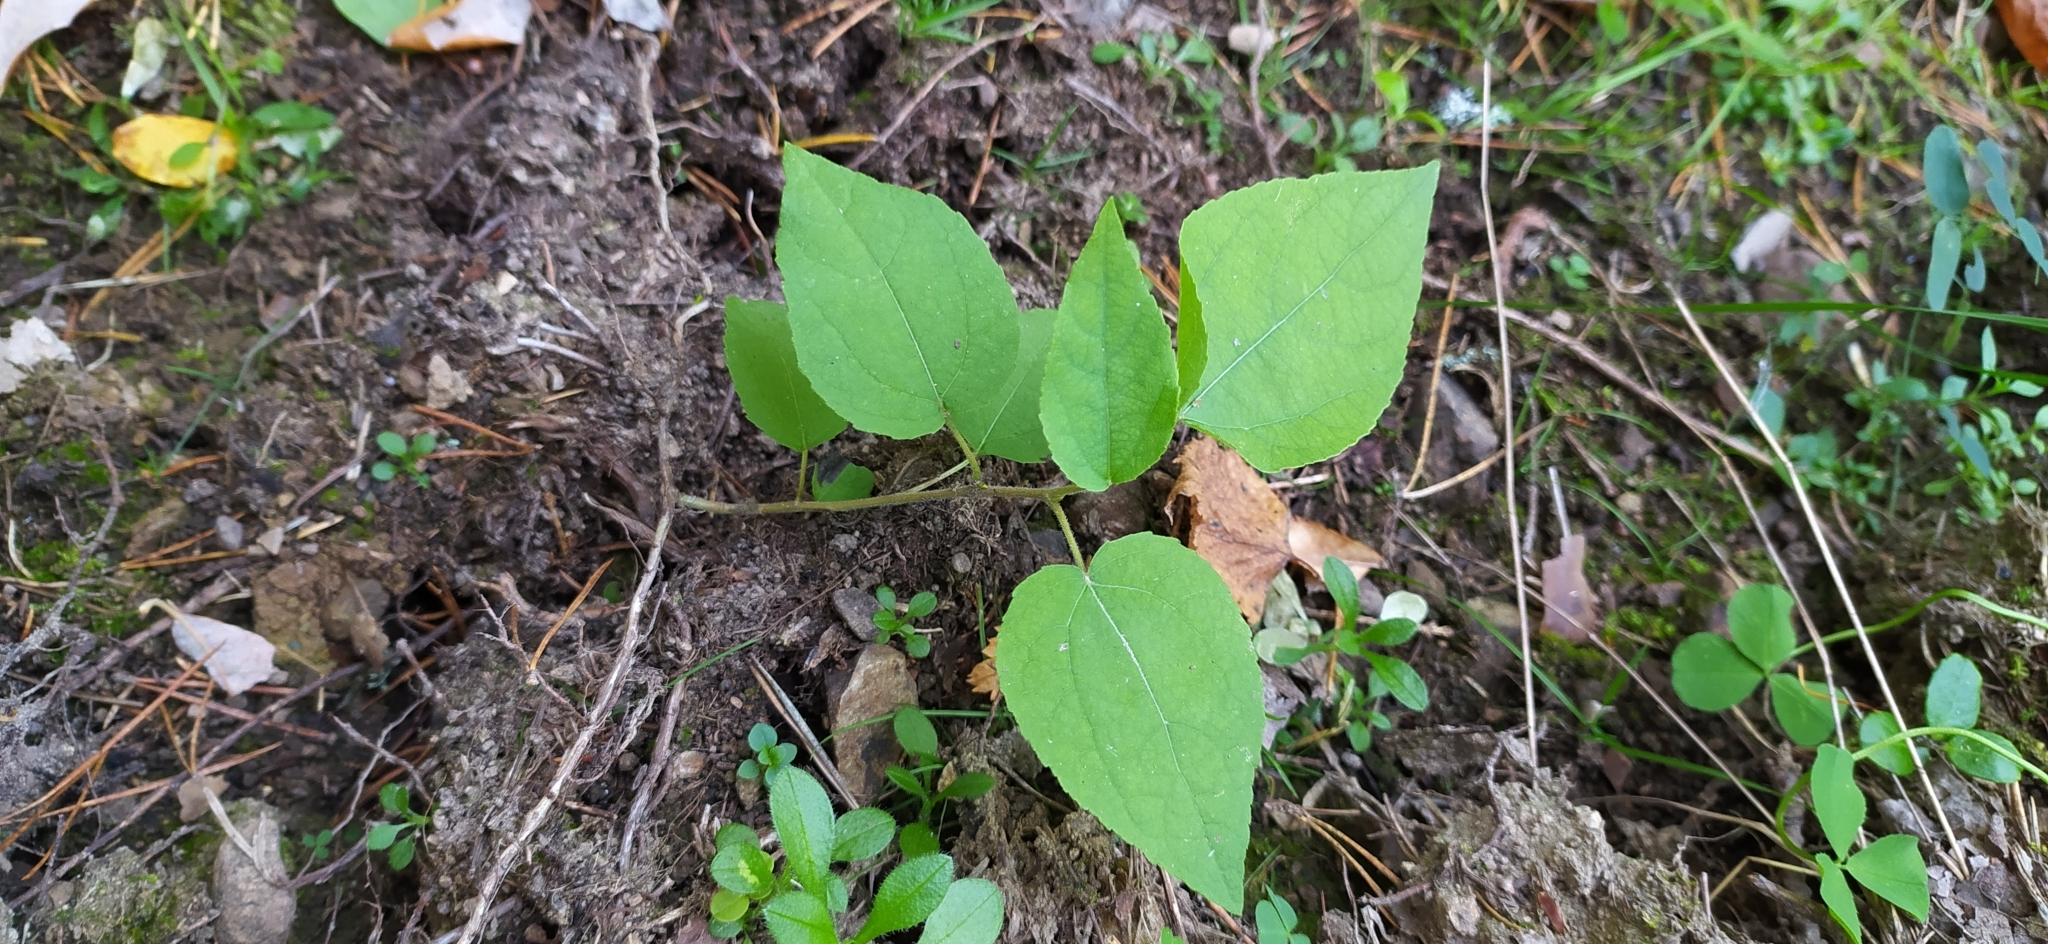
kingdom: Plantae
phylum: Tracheophyta
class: Magnoliopsida
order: Malpighiales
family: Salicaceae
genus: Populus
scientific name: Populus tremula
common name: European aspen
